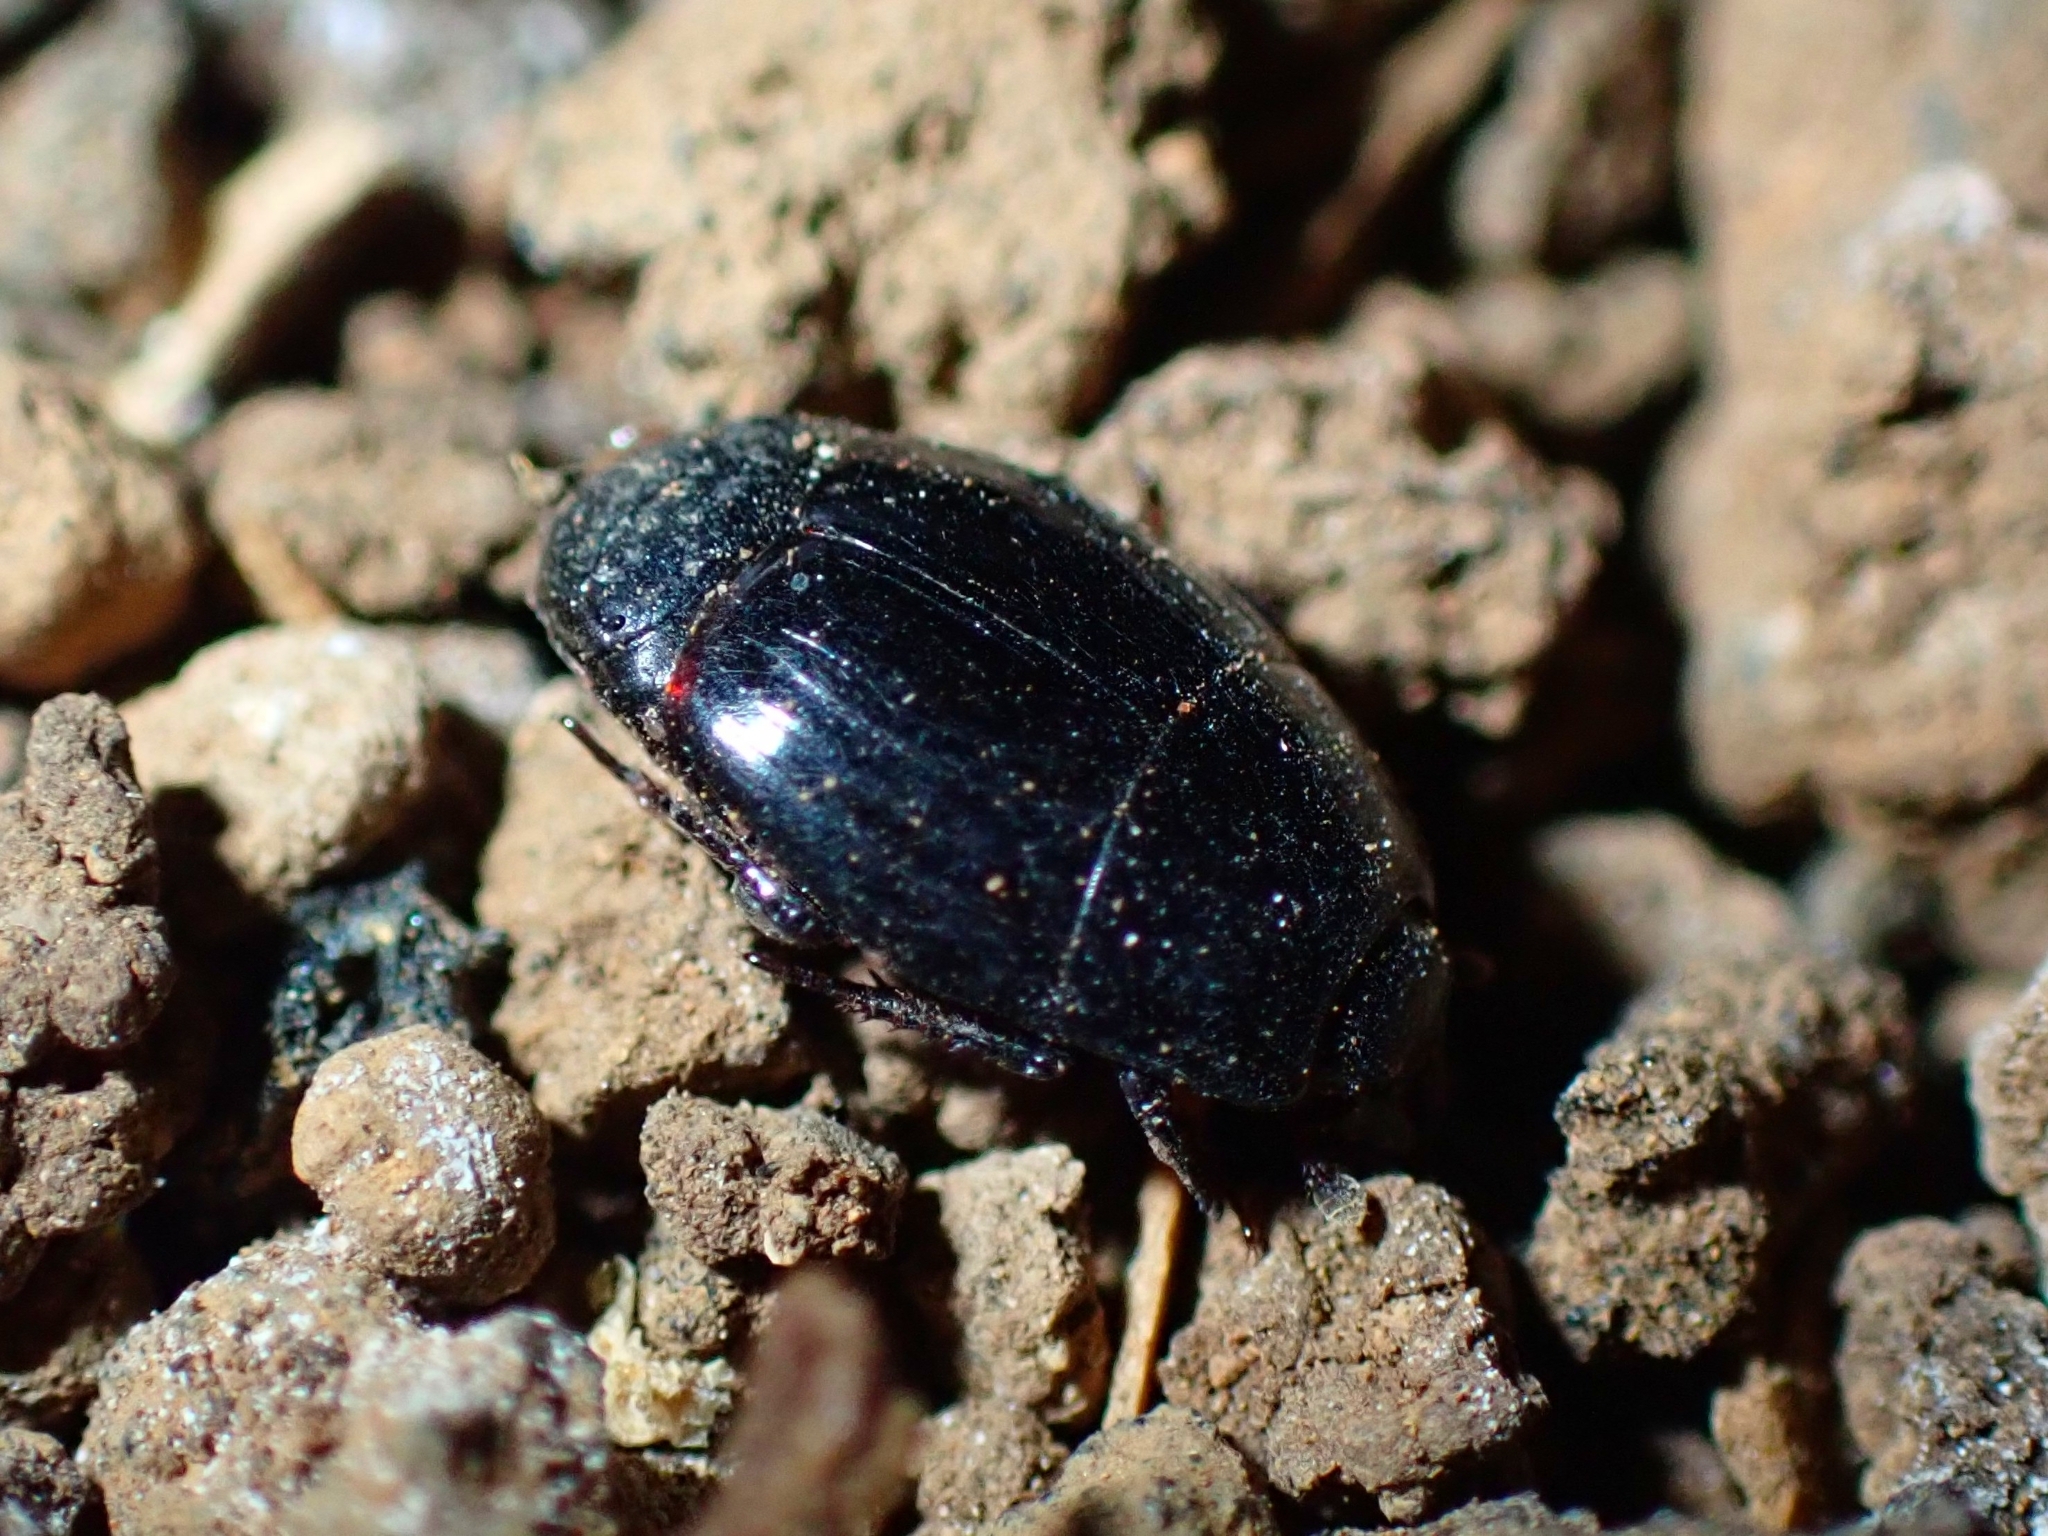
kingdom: Animalia
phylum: Arthropoda
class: Insecta
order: Coleoptera
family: Histeridae
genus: Hister
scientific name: Hister canariensis
